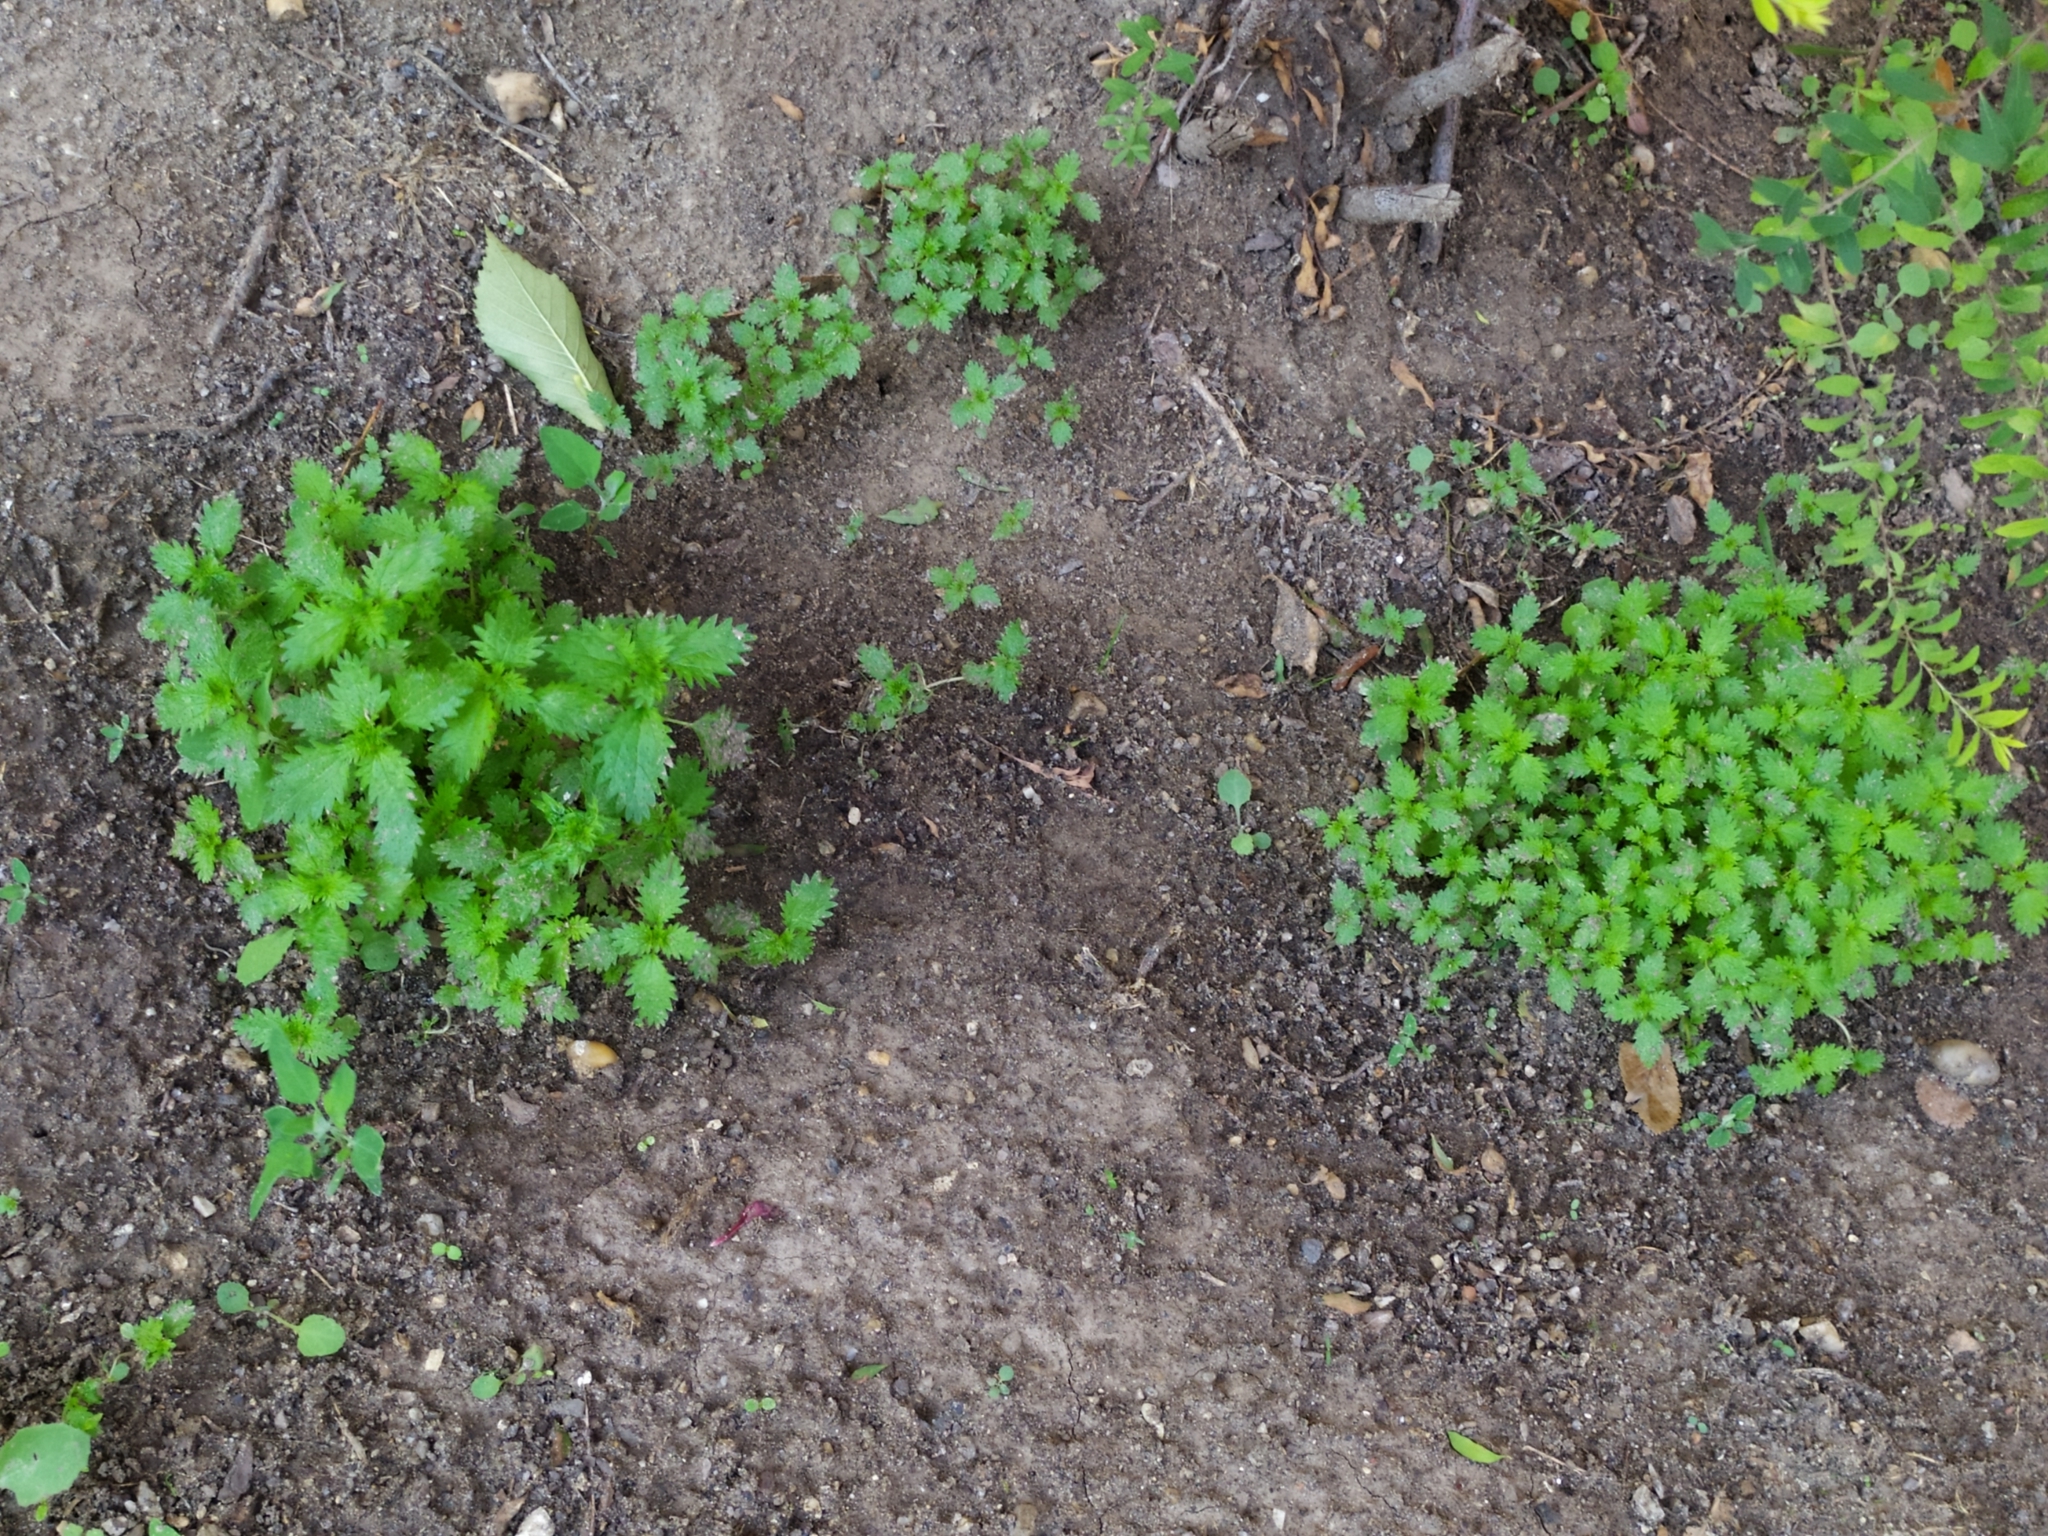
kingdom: Plantae
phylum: Tracheophyta
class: Magnoliopsida
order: Rosales
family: Urticaceae
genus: Urtica
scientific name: Urtica urens
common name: Dwarf nettle
